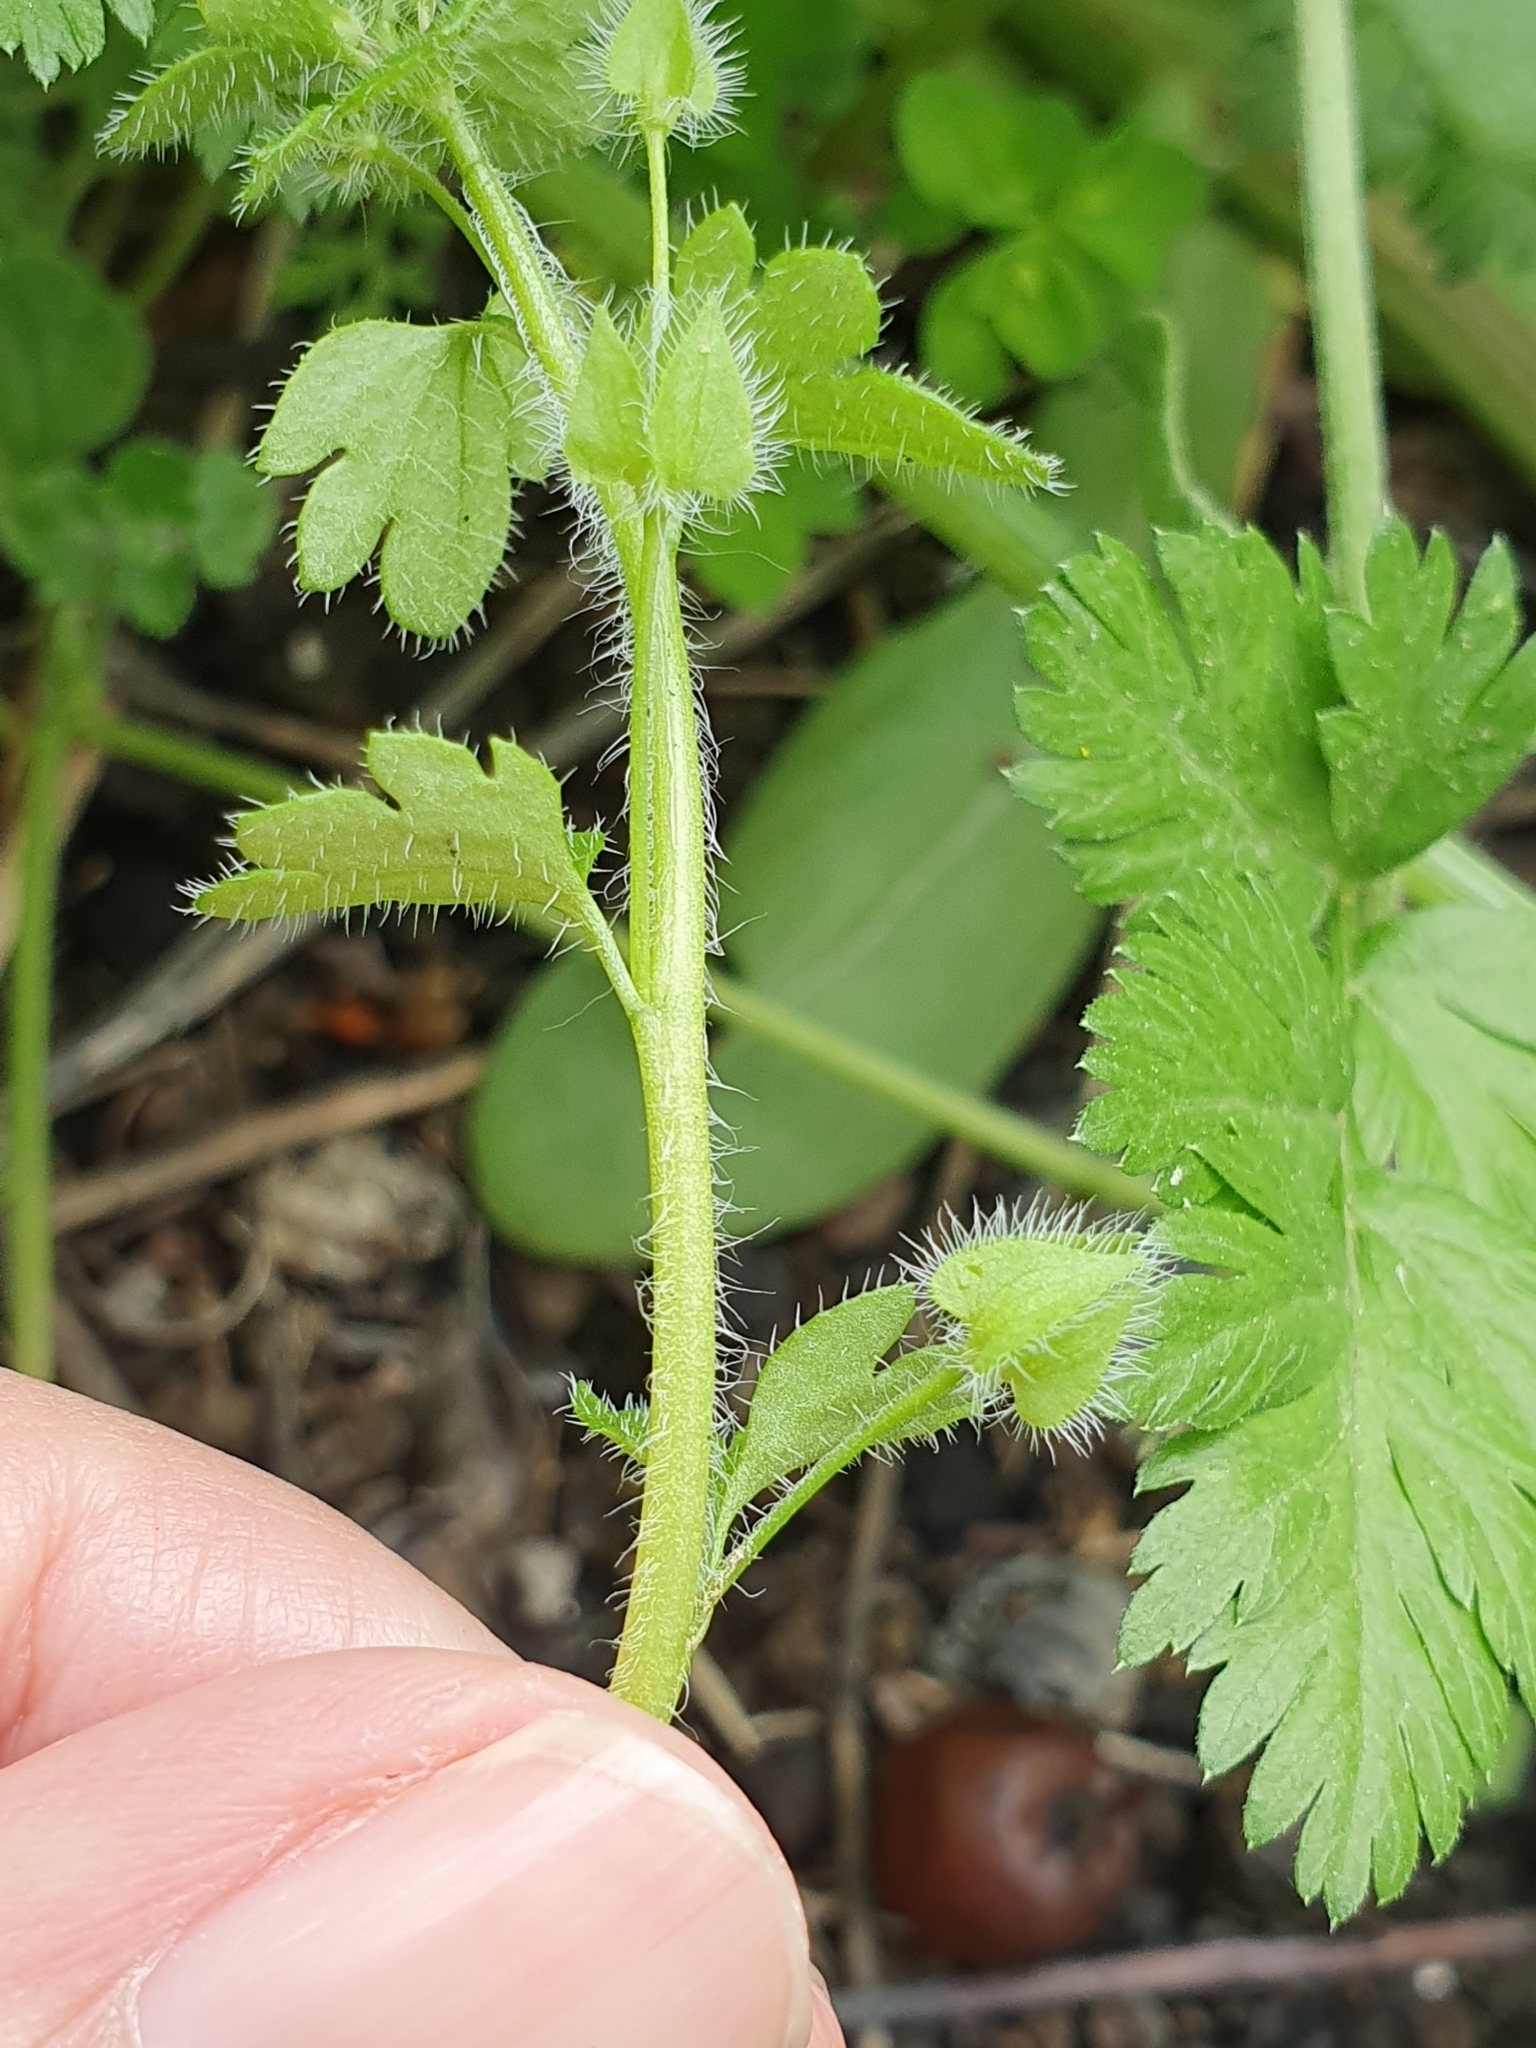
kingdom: Plantae
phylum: Tracheophyta
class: Magnoliopsida
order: Lamiales
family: Plantaginaceae
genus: Veronica
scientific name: Veronica hederifolia
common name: Ivy-leaved speedwell
